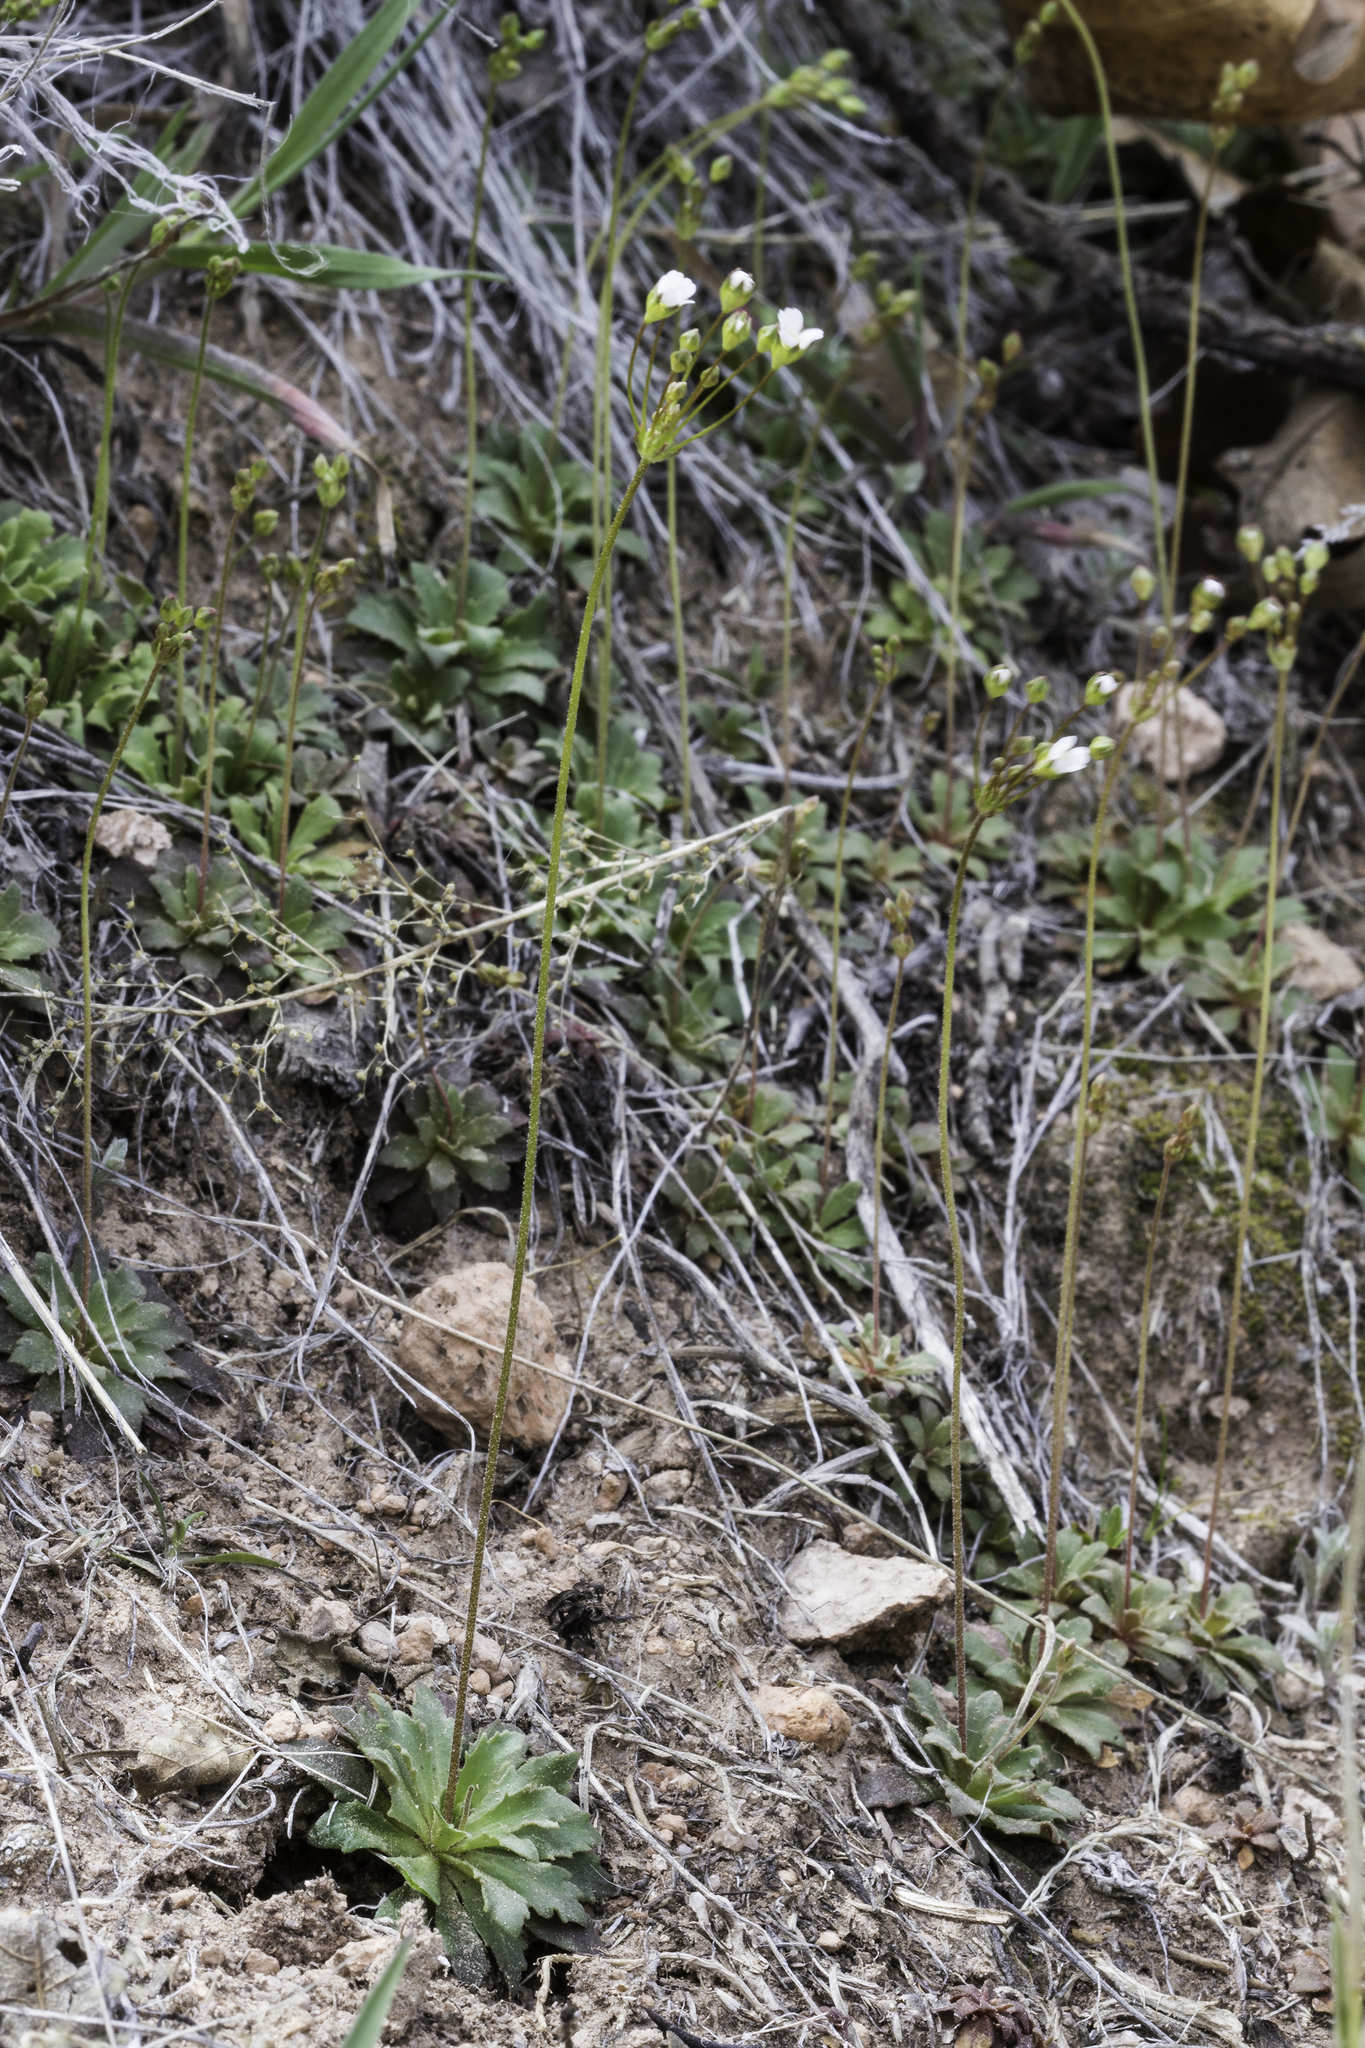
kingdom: Plantae
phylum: Tracheophyta
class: Magnoliopsida
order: Ericales
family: Primulaceae
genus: Androsace
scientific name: Androsace septentrionalis
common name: Hairy northern fairy-candelabra
